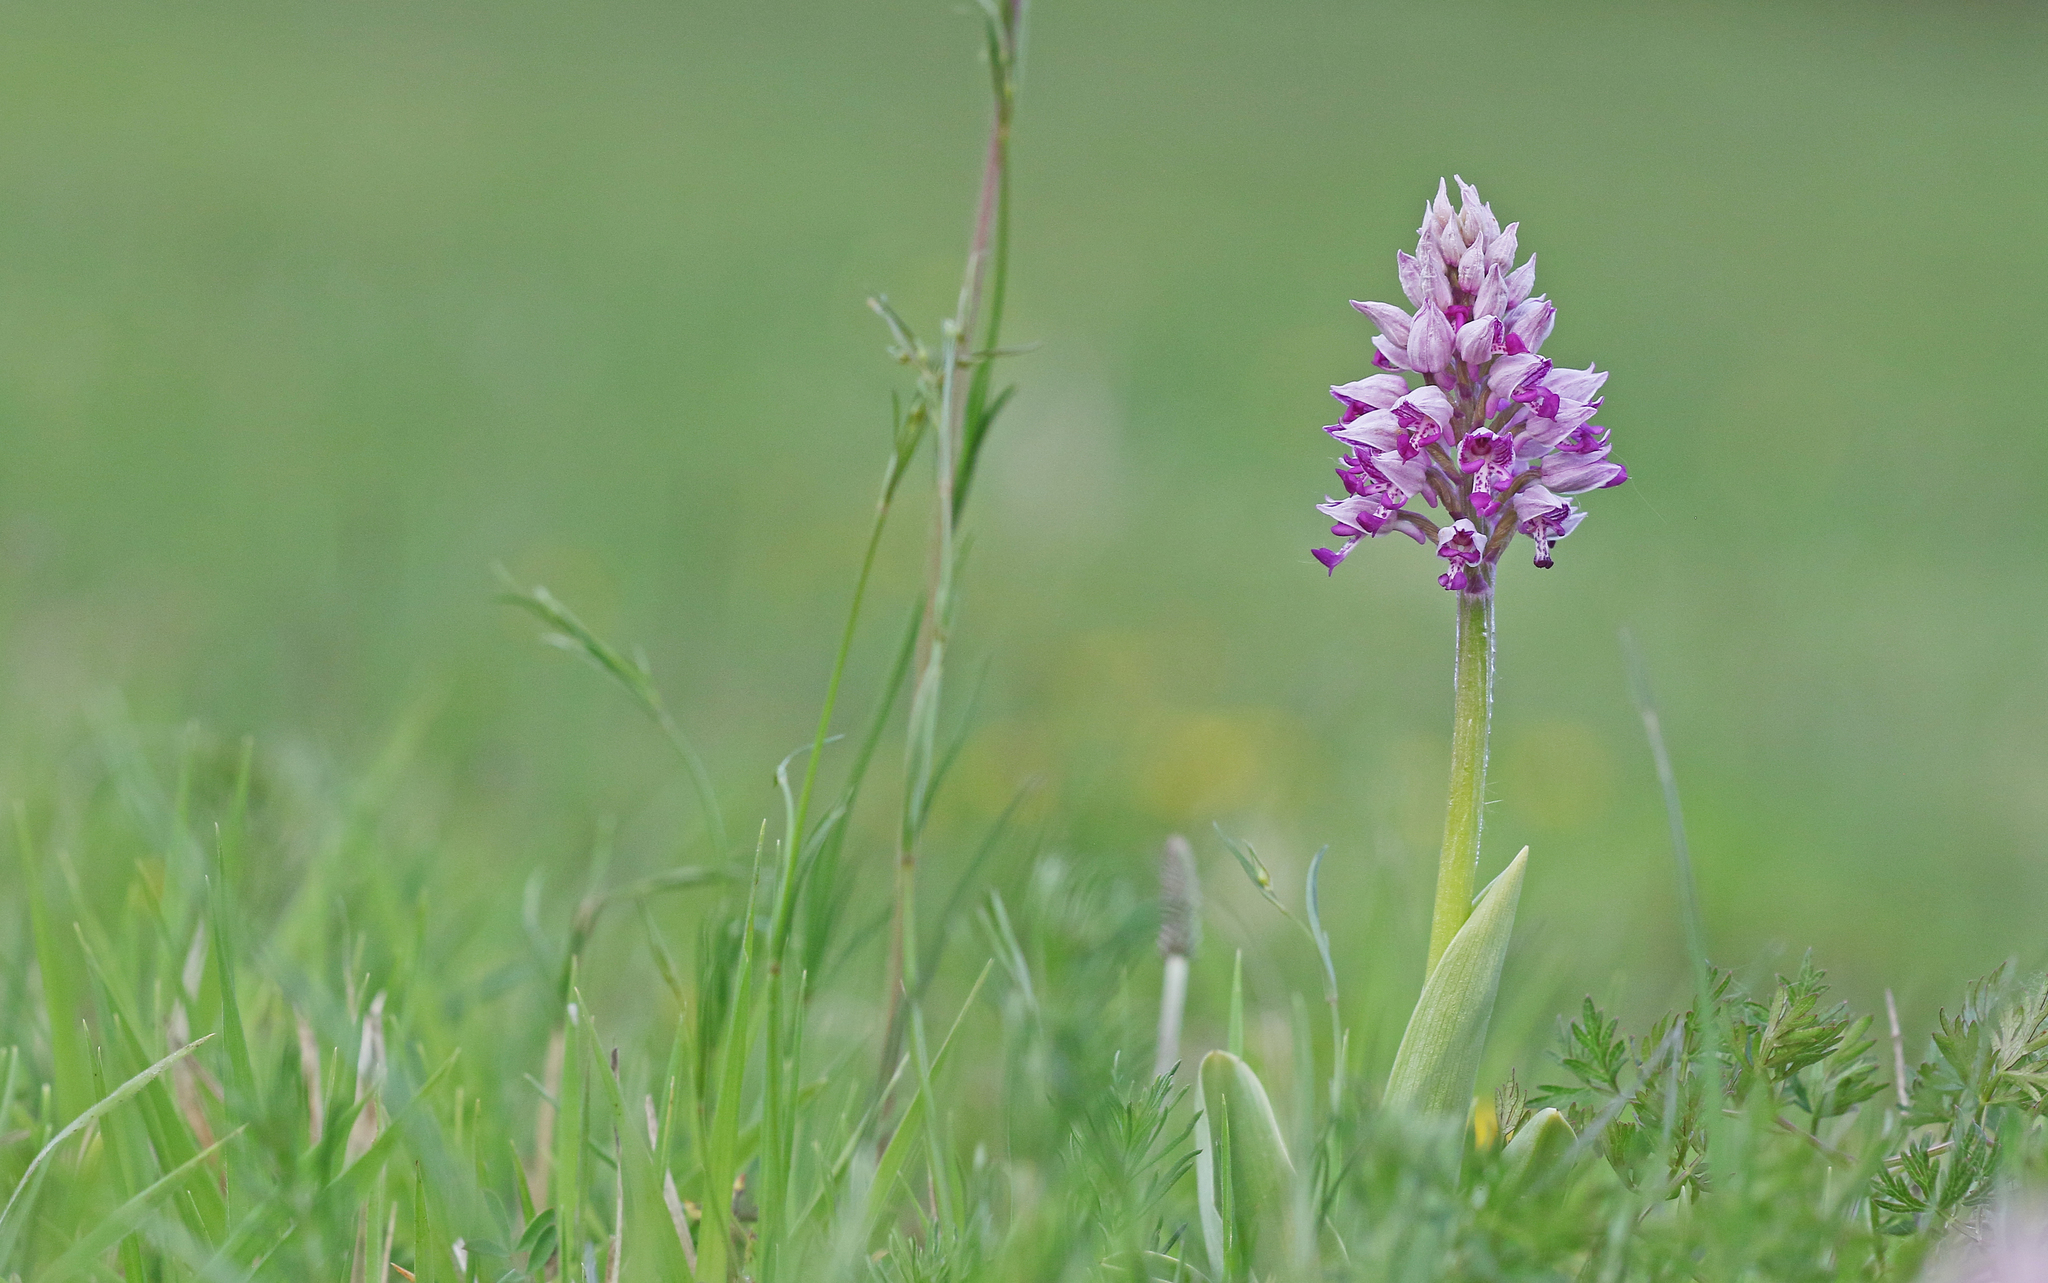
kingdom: Plantae
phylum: Tracheophyta
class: Liliopsida
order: Asparagales
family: Orchidaceae
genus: Orchis
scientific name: Orchis militaris
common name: Military orchid
